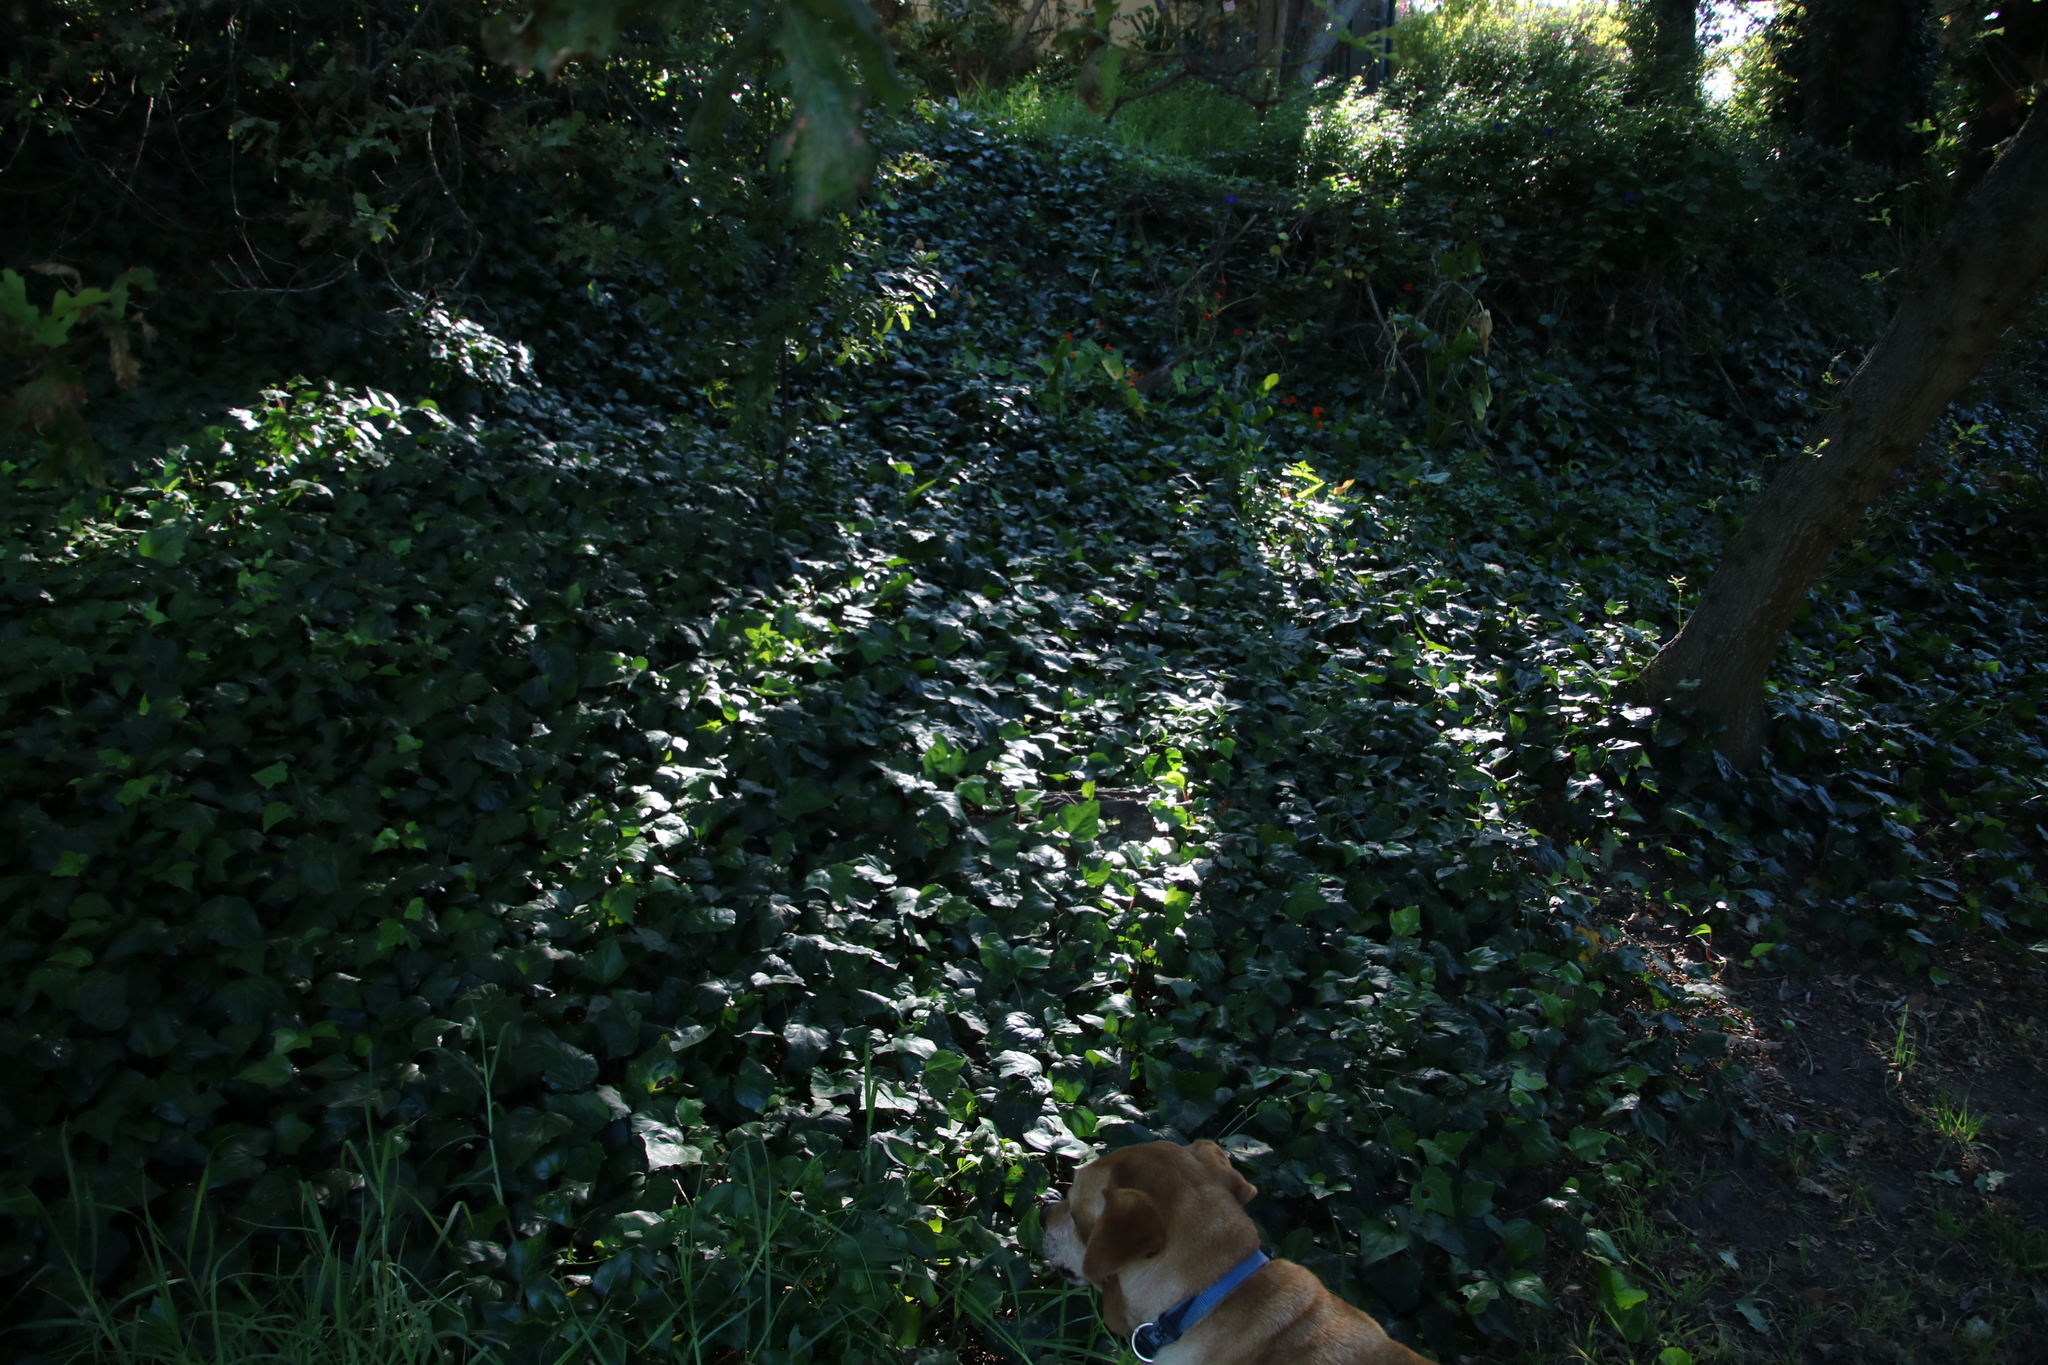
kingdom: Plantae
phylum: Tracheophyta
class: Magnoliopsida
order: Apiales
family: Araliaceae
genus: Hedera
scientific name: Hedera canariensis
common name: Madeira ivy
